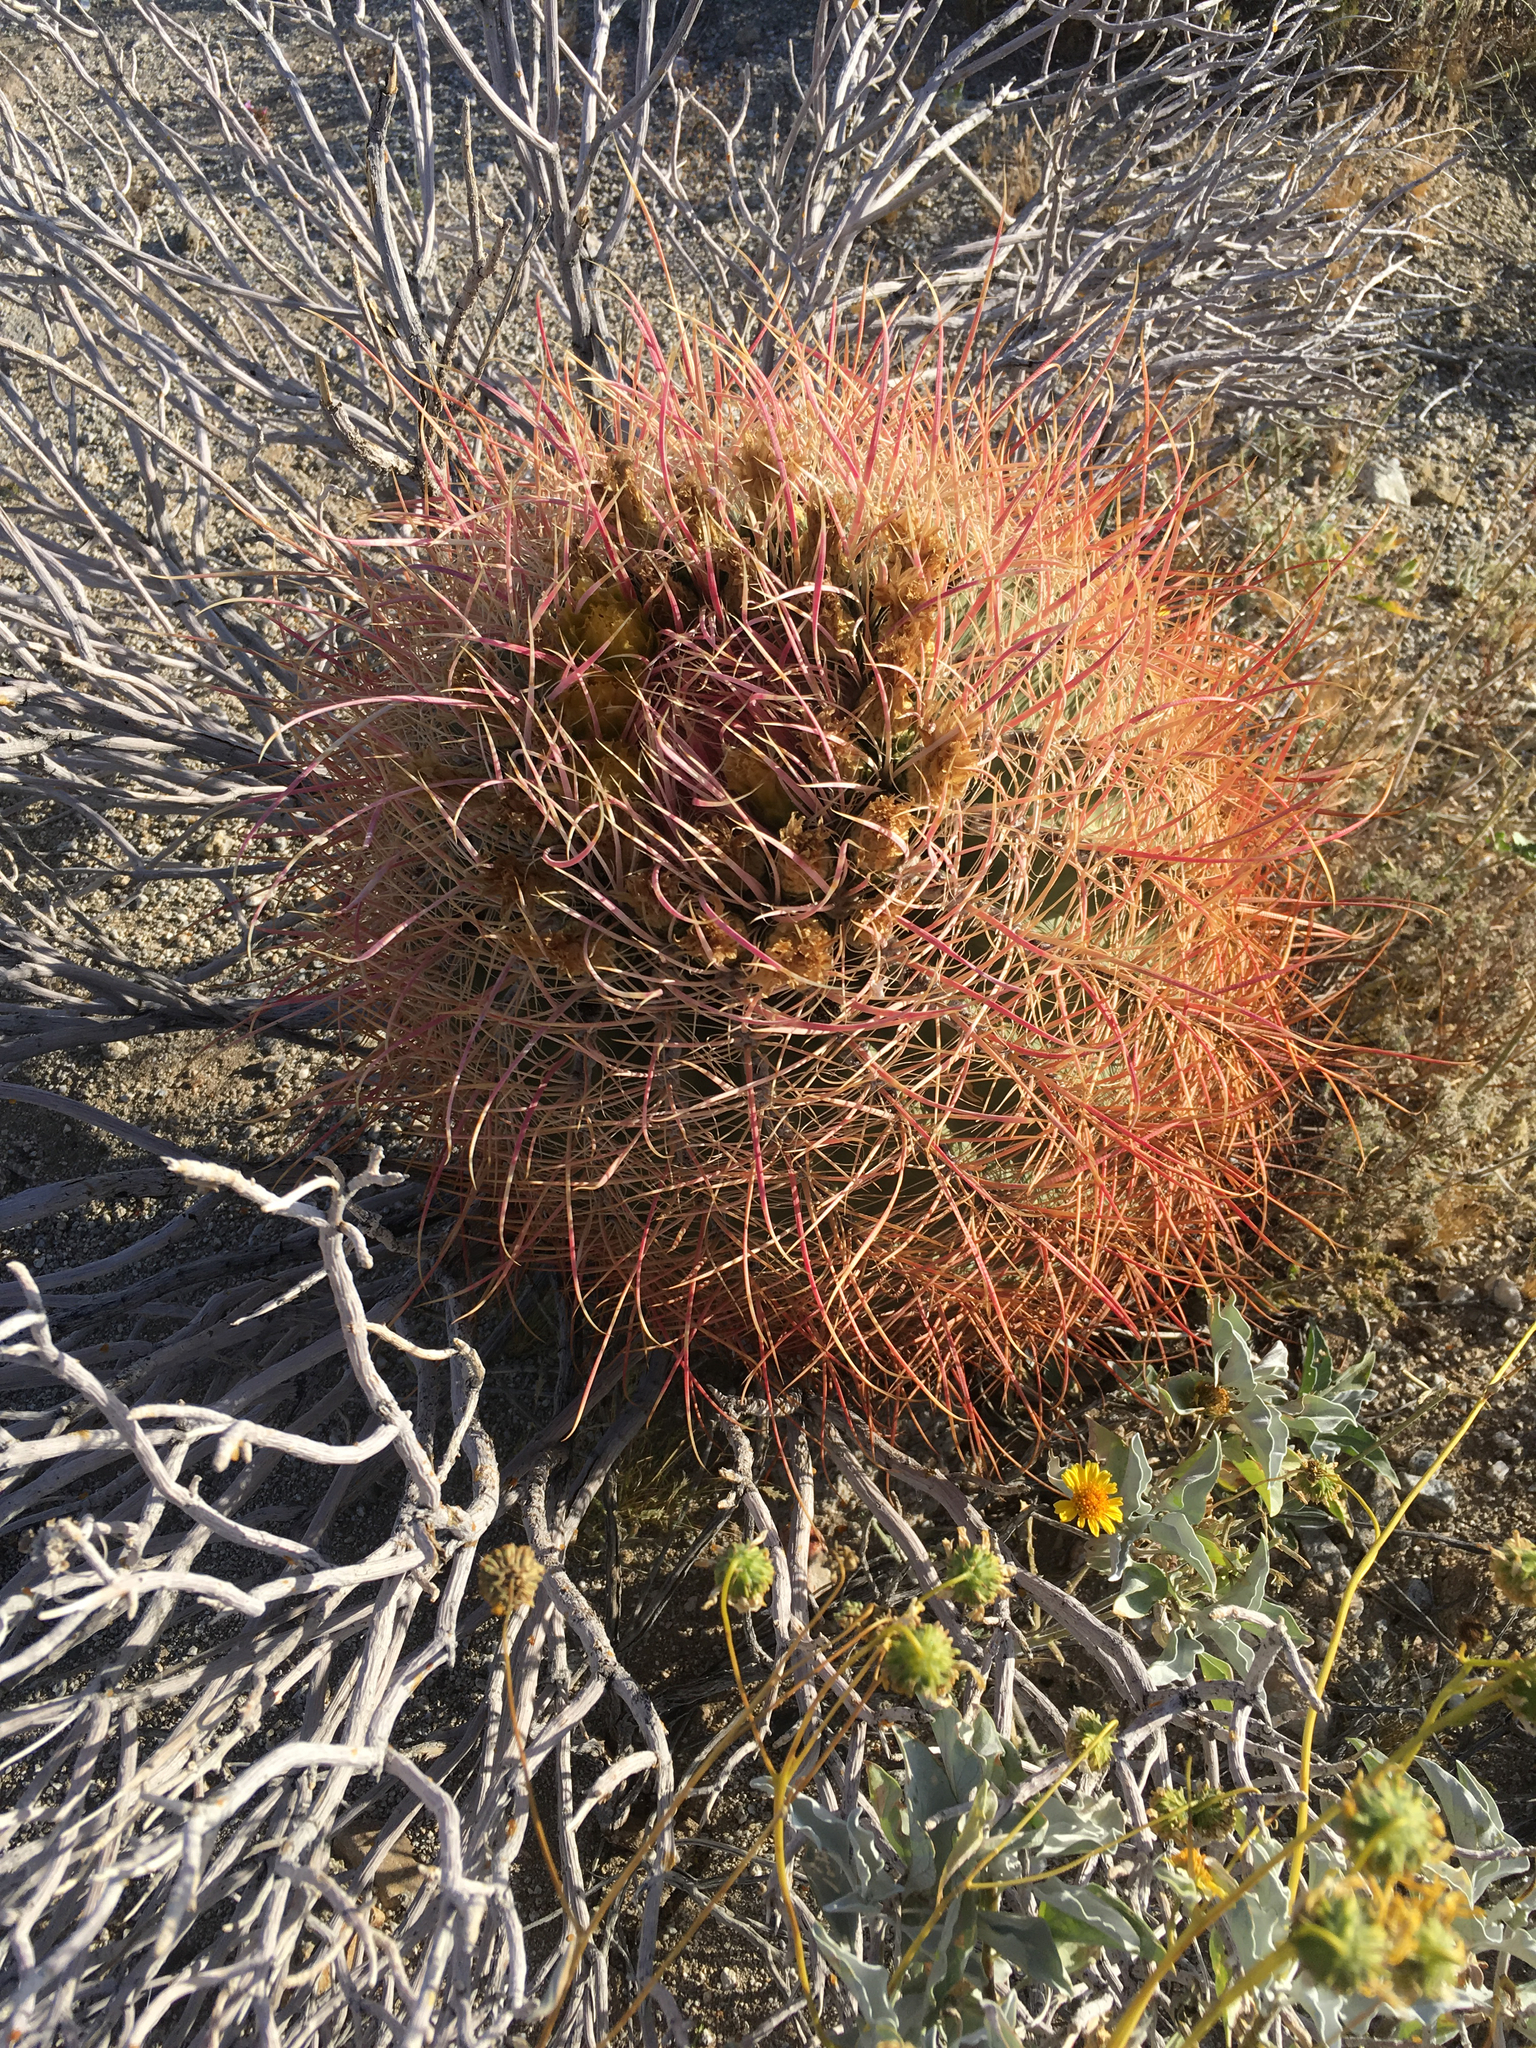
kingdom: Plantae
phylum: Tracheophyta
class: Magnoliopsida
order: Caryophyllales
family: Cactaceae
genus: Ferocactus
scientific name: Ferocactus cylindraceus
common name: California barrel cactus
